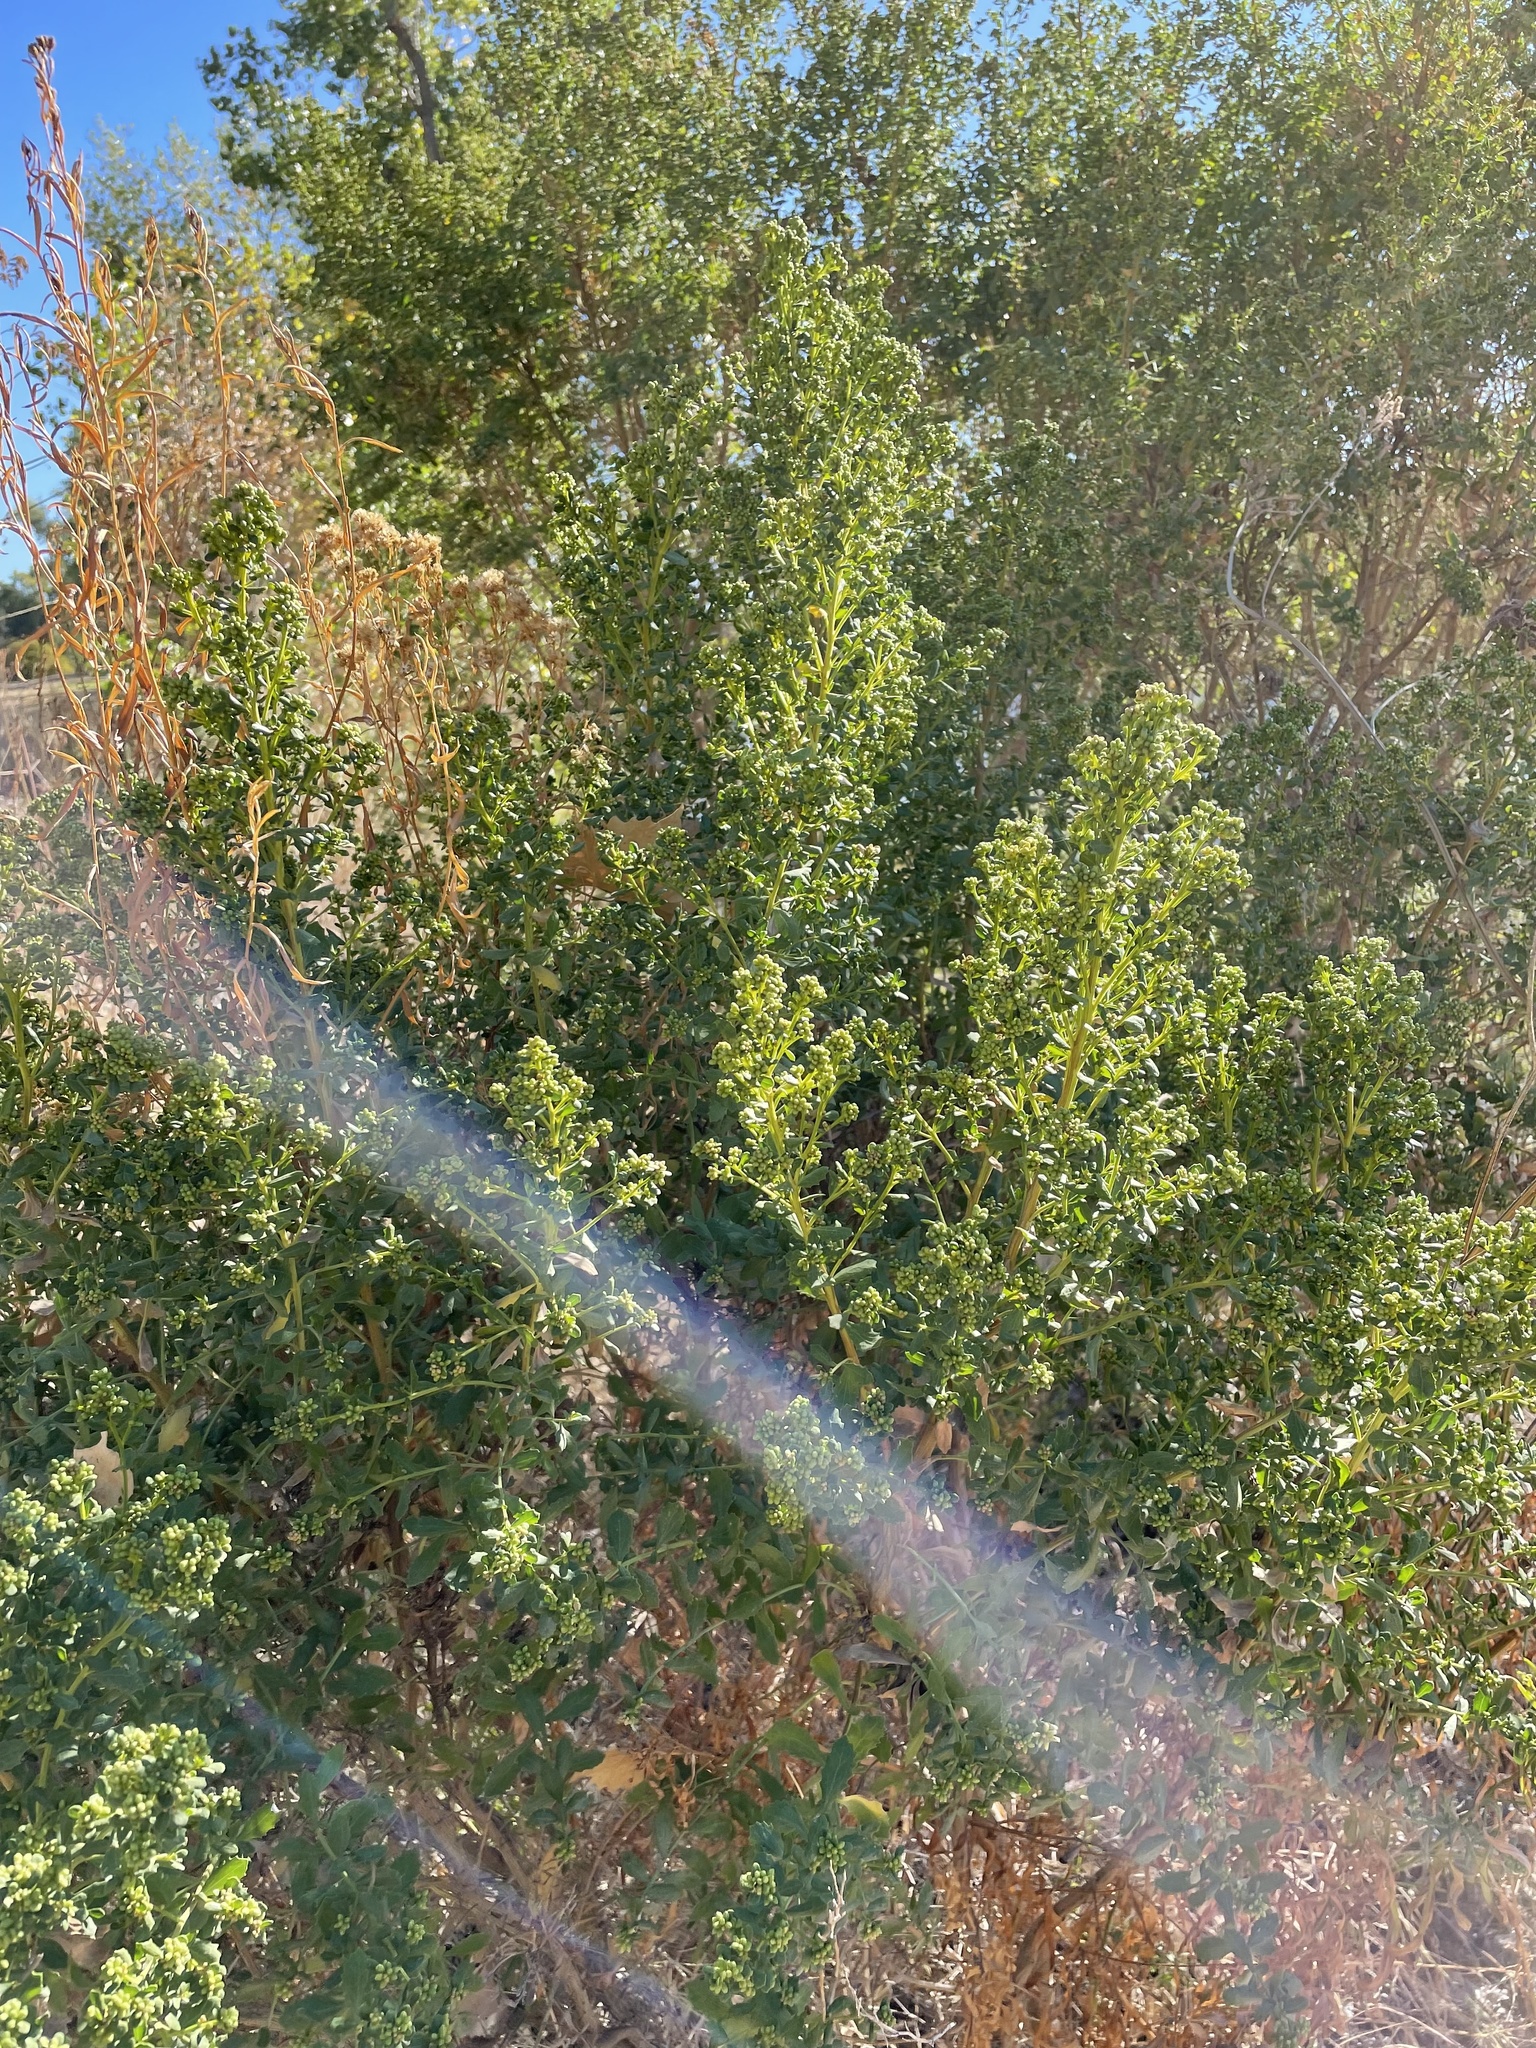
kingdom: Plantae
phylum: Tracheophyta
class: Magnoliopsida
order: Asterales
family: Asteraceae
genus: Baccharis
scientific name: Baccharis pilularis
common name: Coyotebrush
